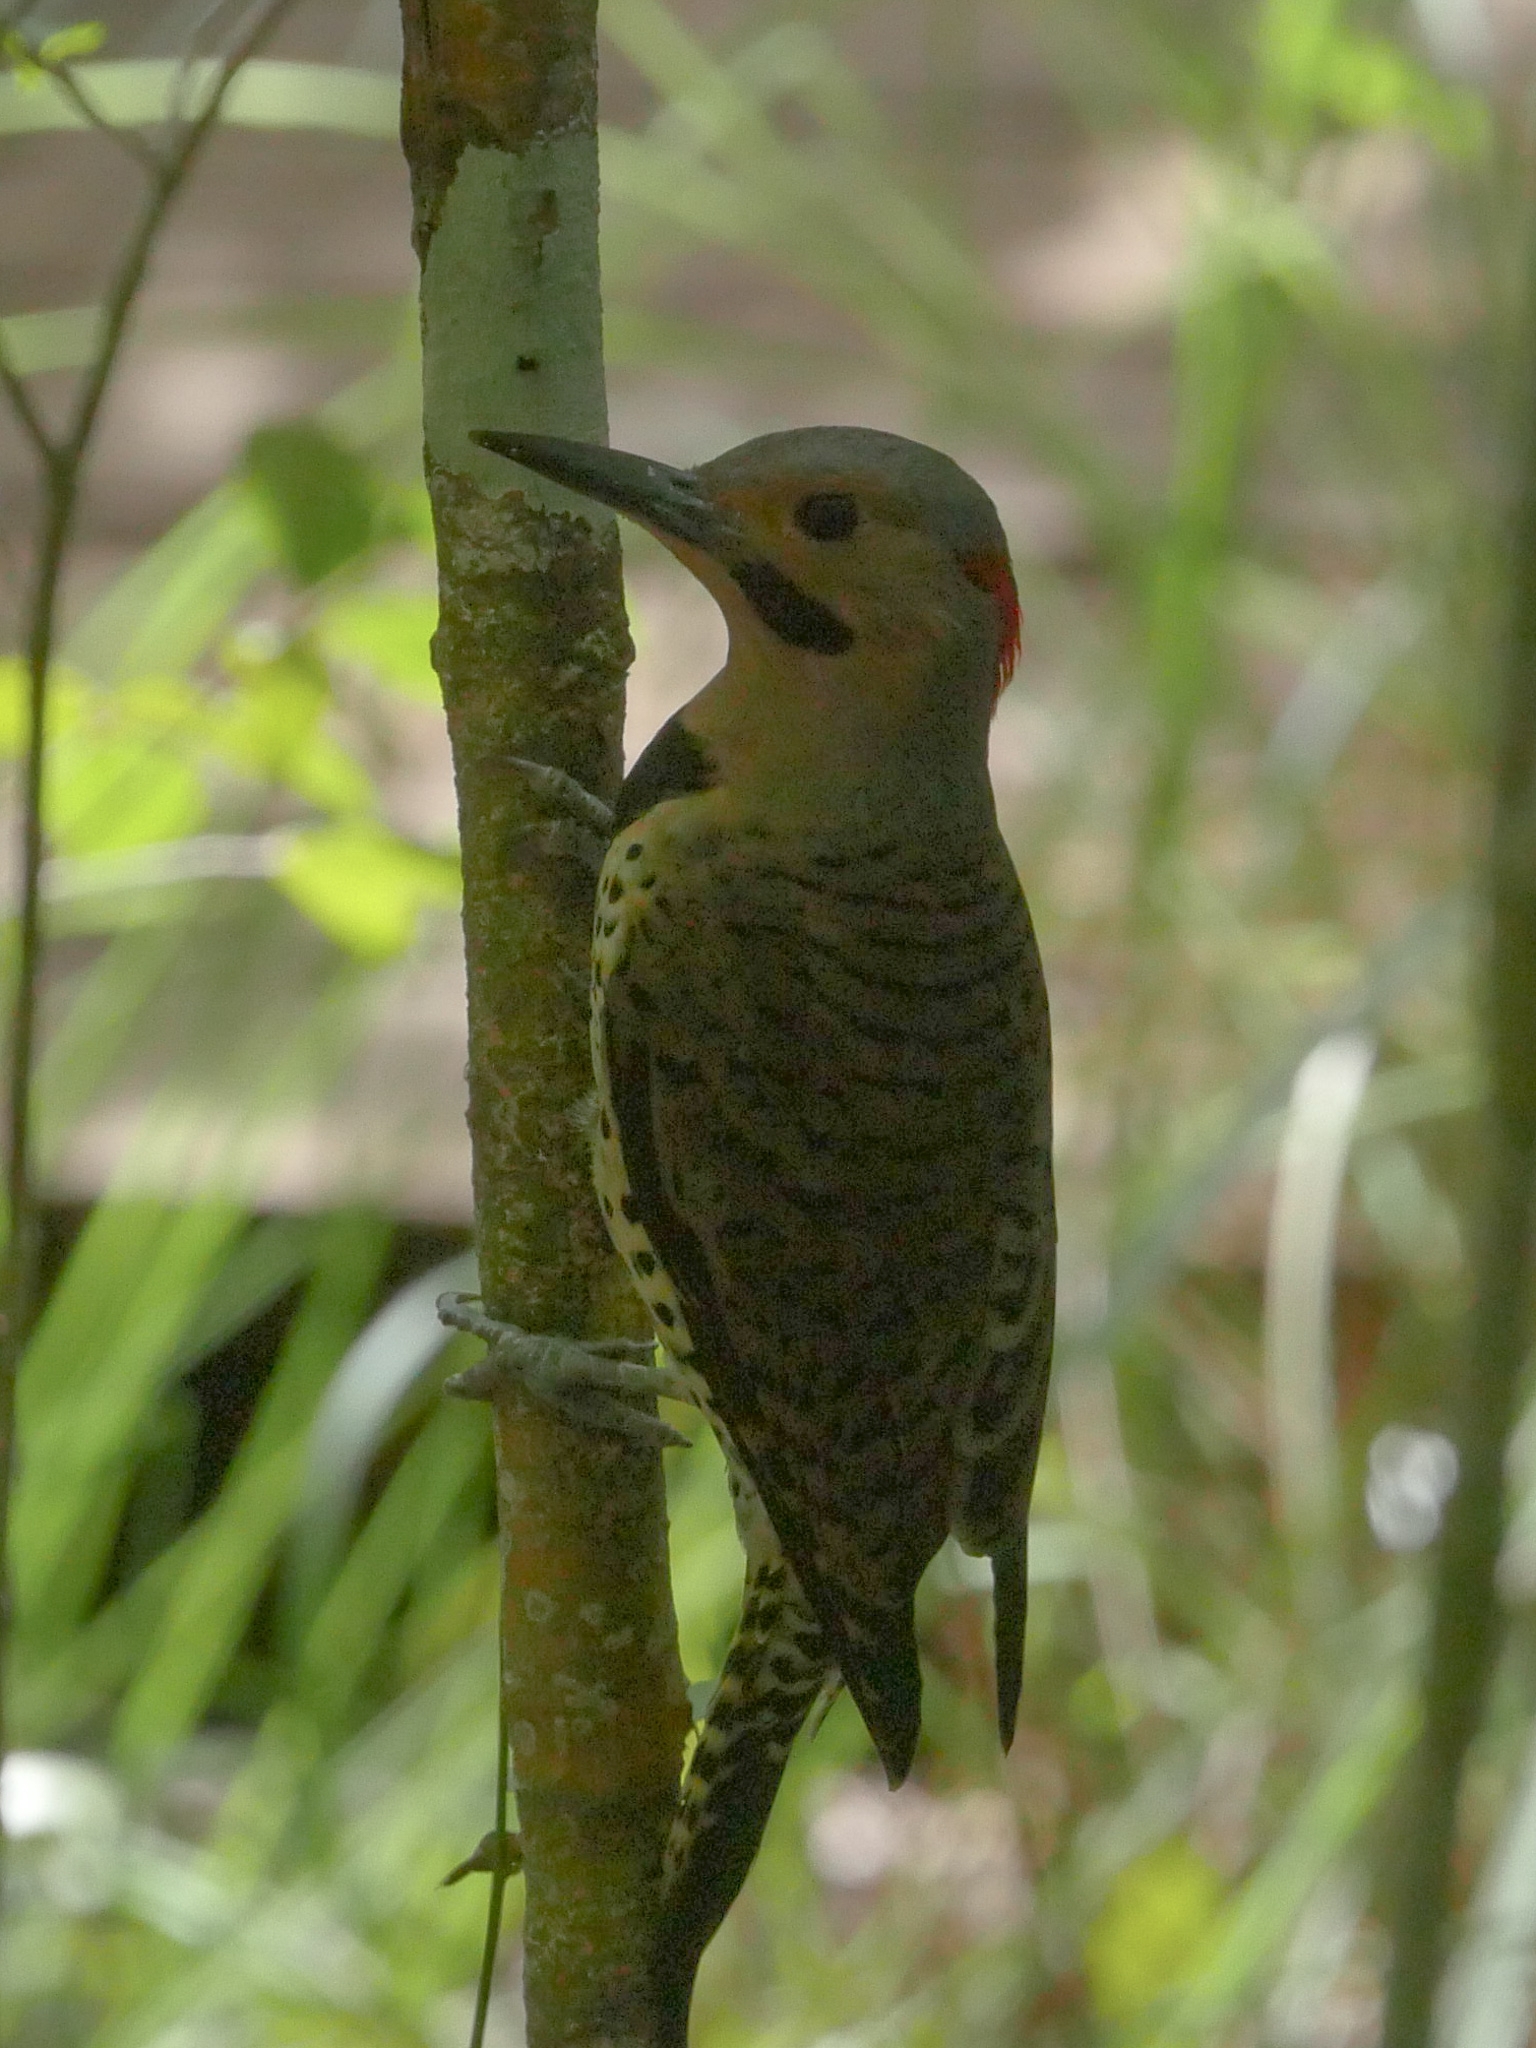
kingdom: Animalia
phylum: Chordata
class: Aves
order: Piciformes
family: Picidae
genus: Colaptes
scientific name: Colaptes auratus
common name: Northern flicker
